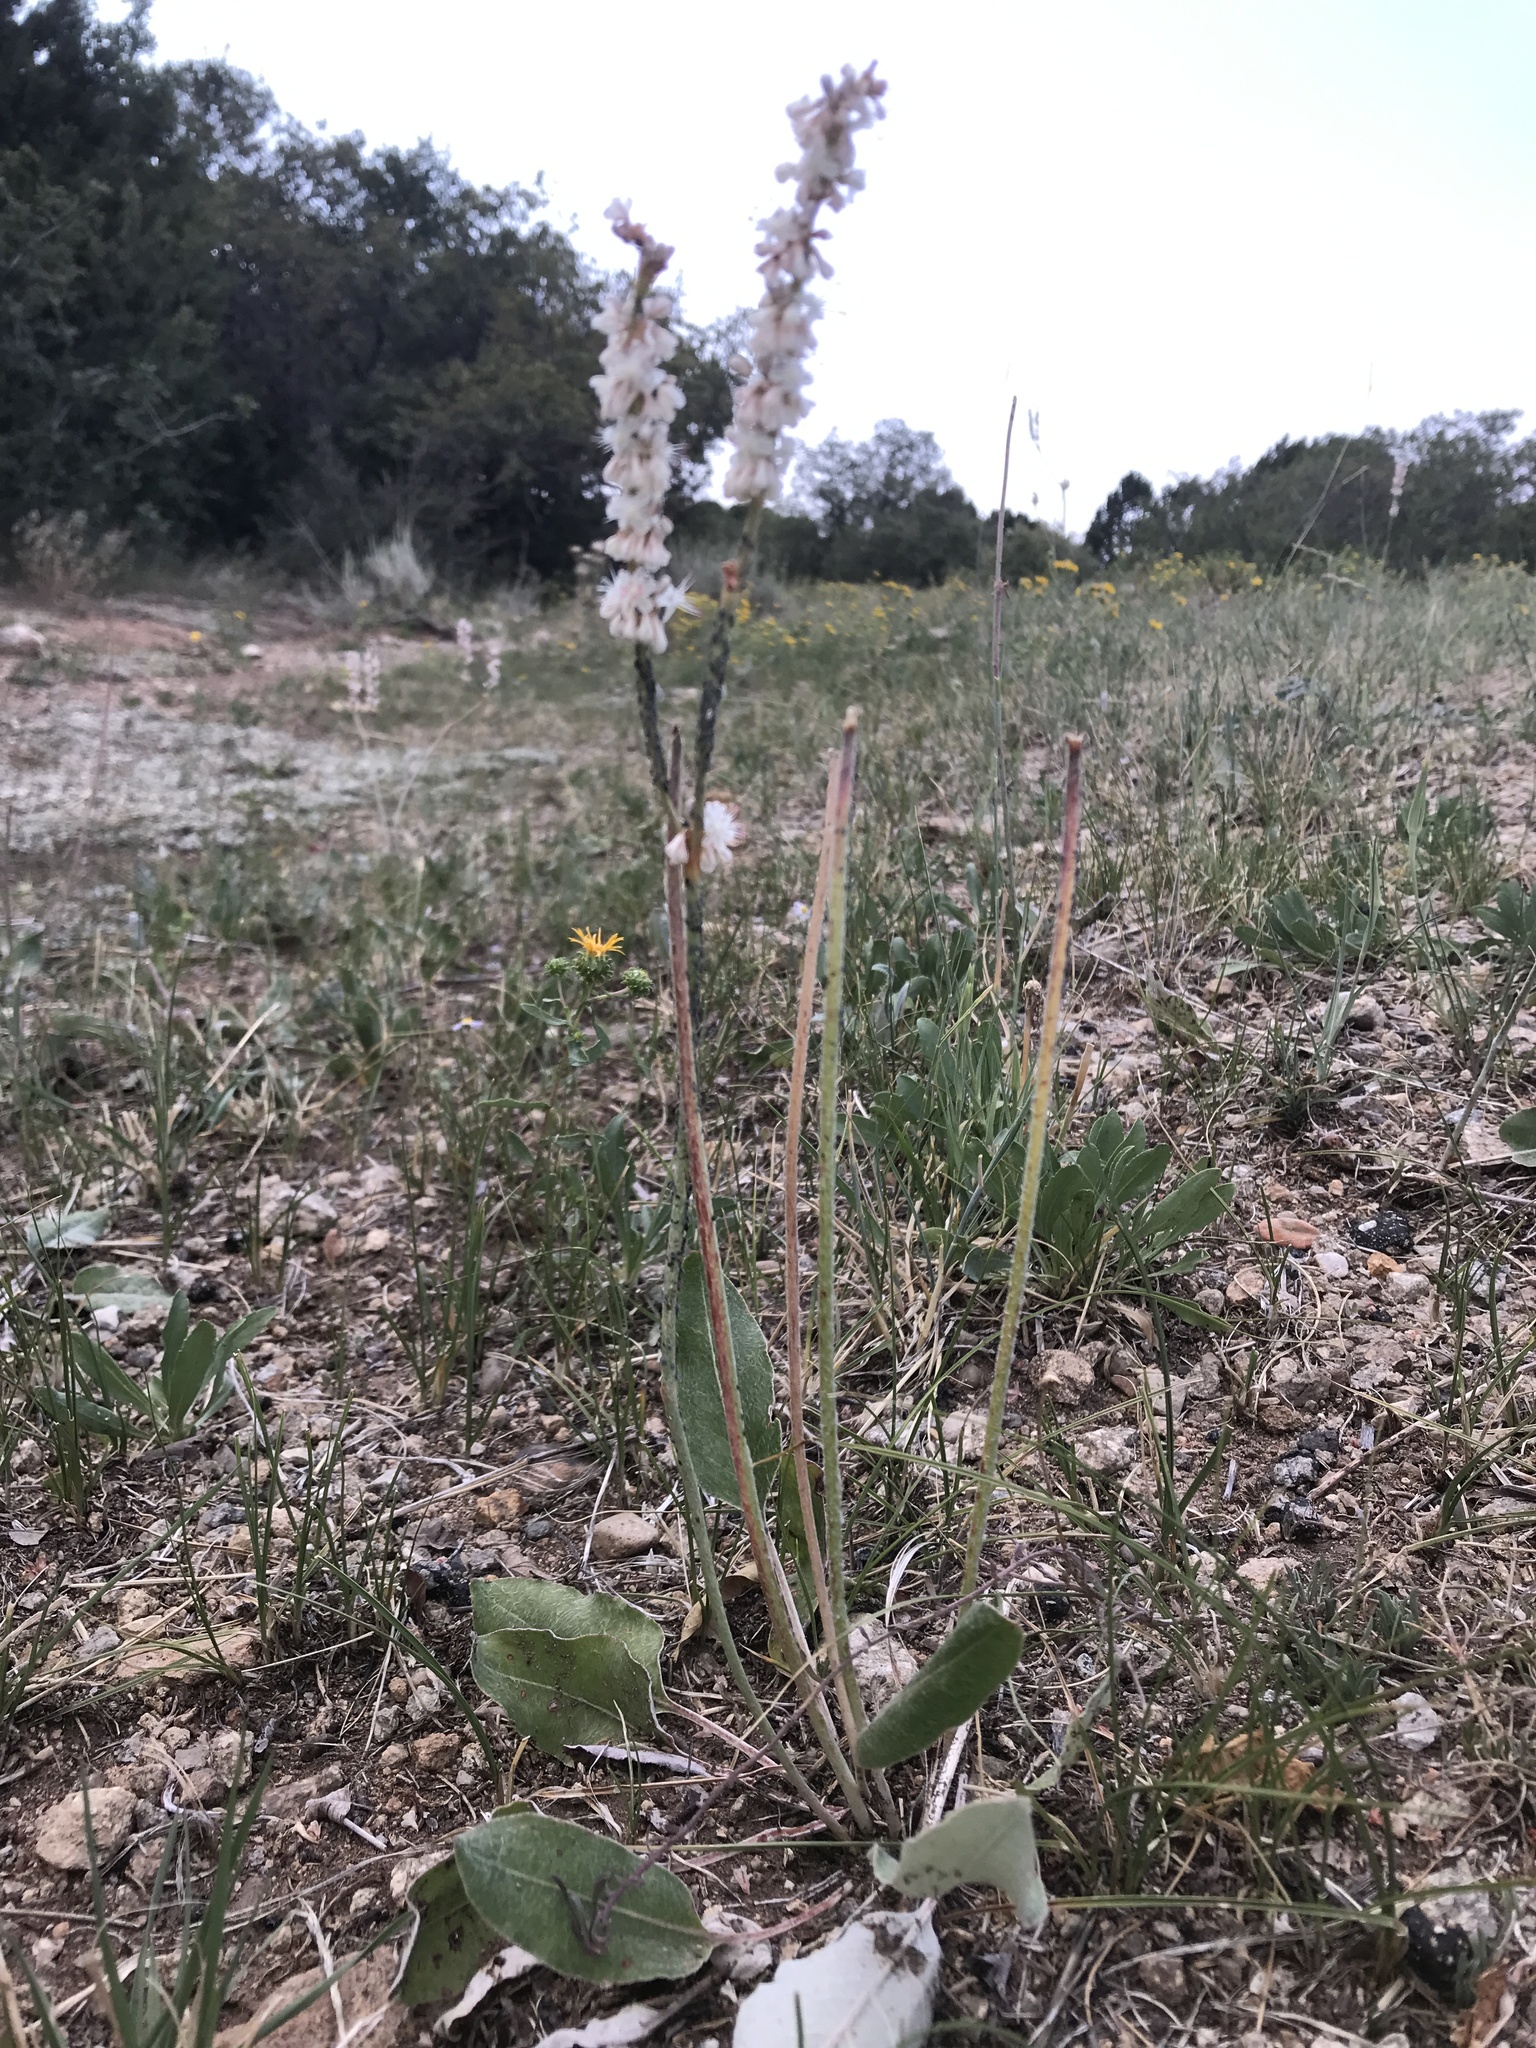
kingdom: Plantae
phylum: Tracheophyta
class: Magnoliopsida
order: Caryophyllales
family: Polygonaceae
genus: Eriogonum
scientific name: Eriogonum racemosum
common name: Redroot wild buckwheat
